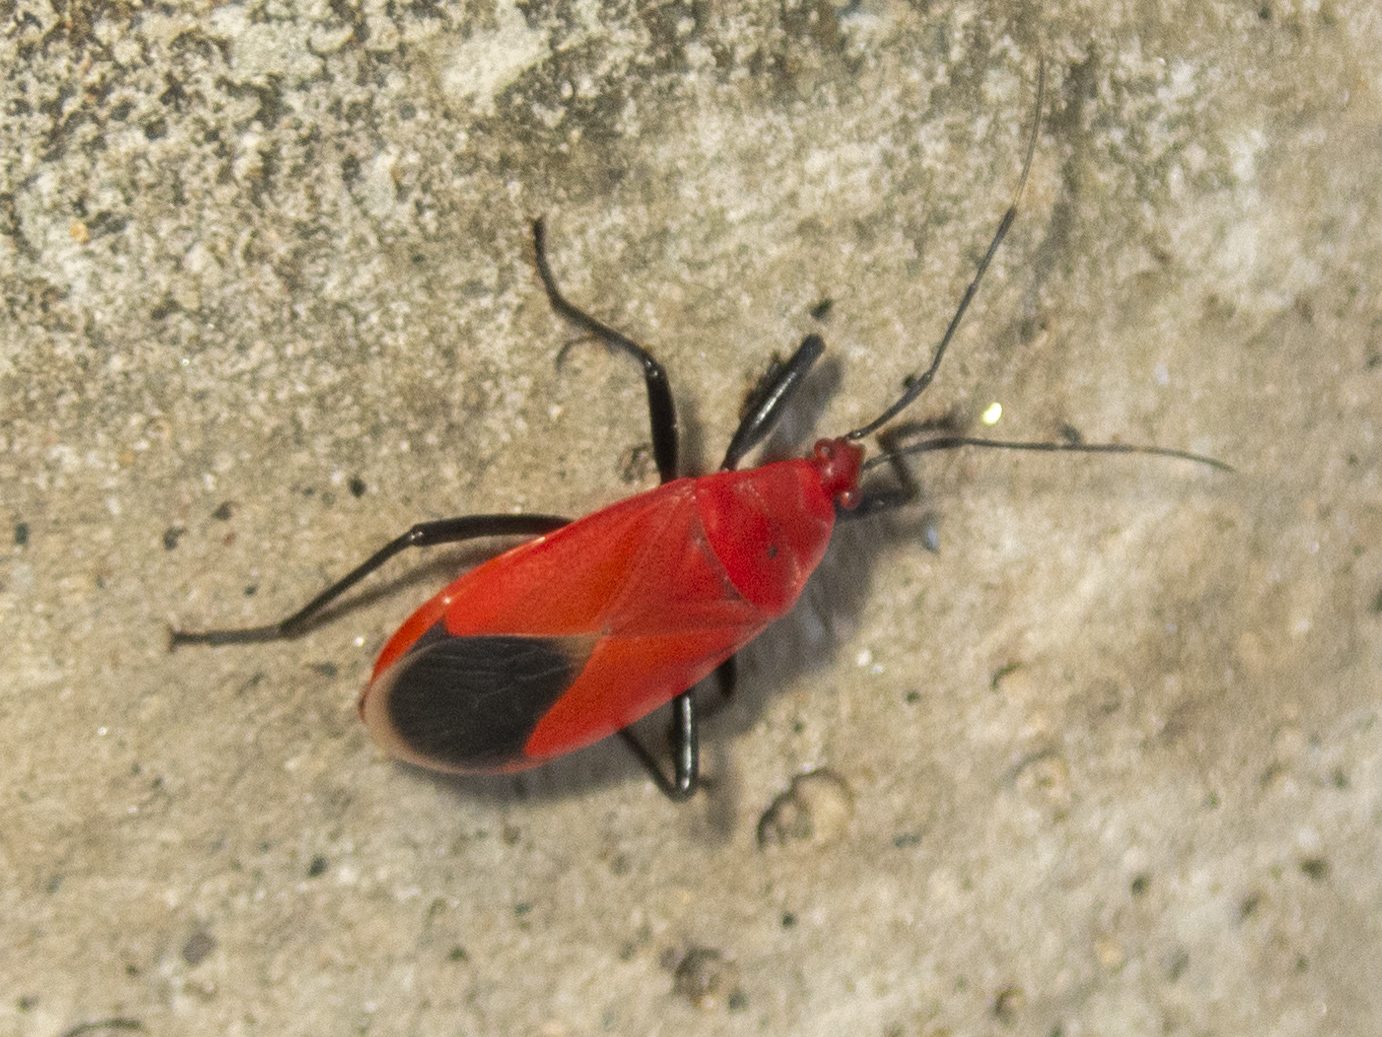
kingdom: Animalia
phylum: Arthropoda
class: Insecta
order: Hemiptera
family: Pyrrhocoridae
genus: Antilochus
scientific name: Antilochus
